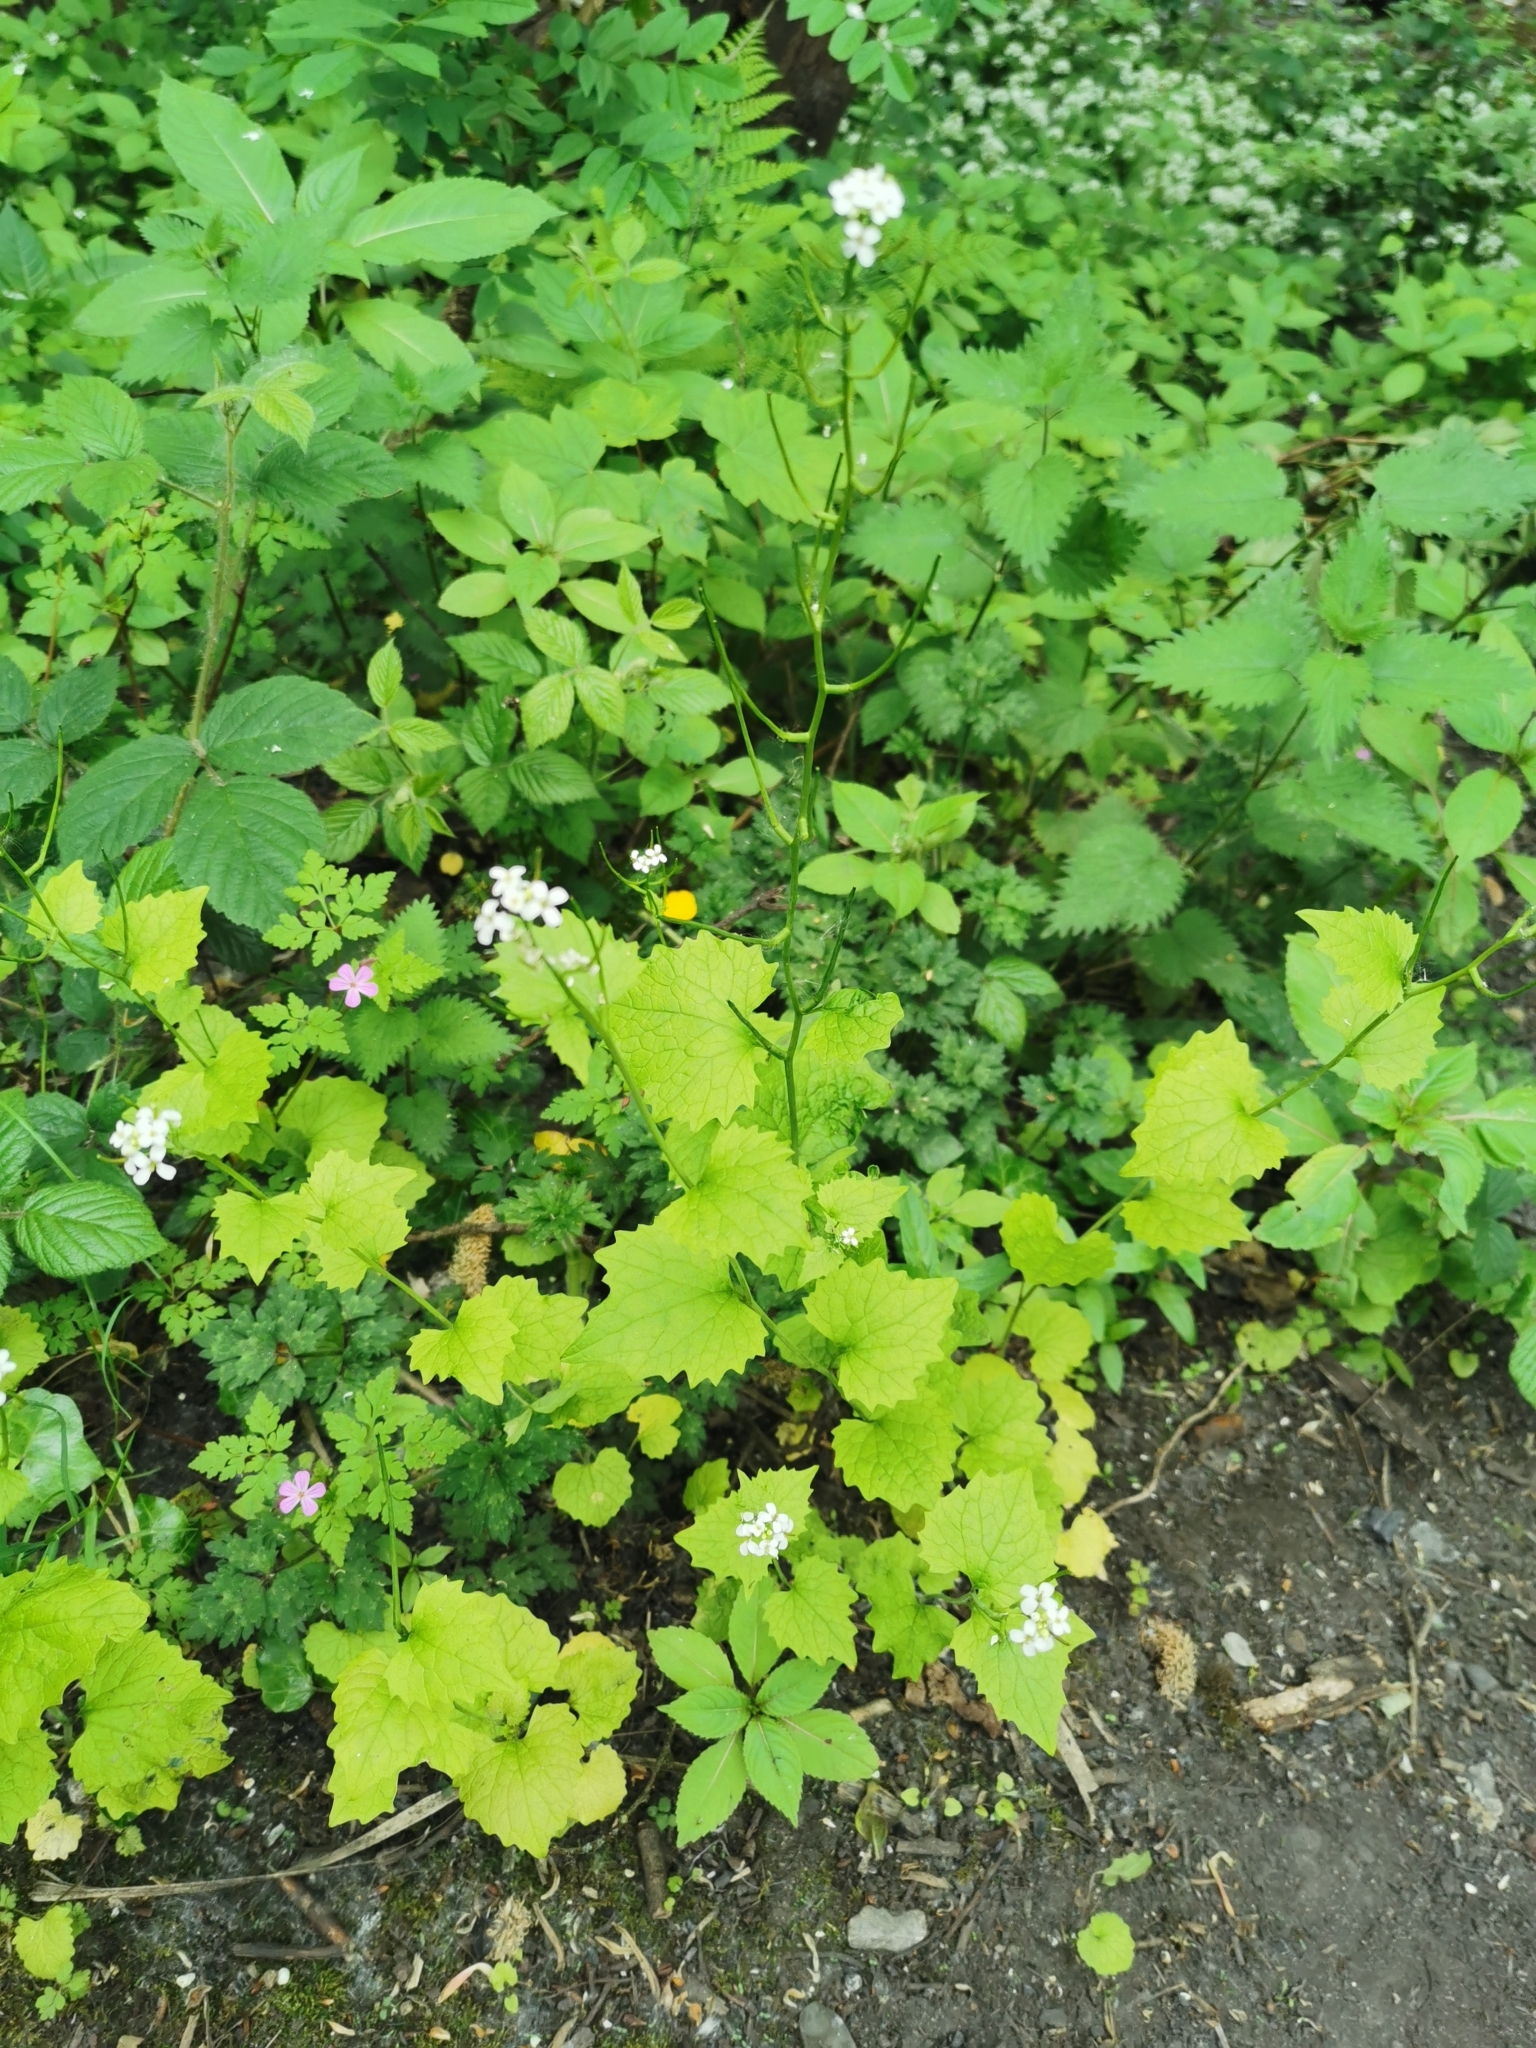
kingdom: Plantae
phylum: Tracheophyta
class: Magnoliopsida
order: Brassicales
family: Brassicaceae
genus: Alliaria
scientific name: Alliaria petiolata
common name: Garlic mustard
